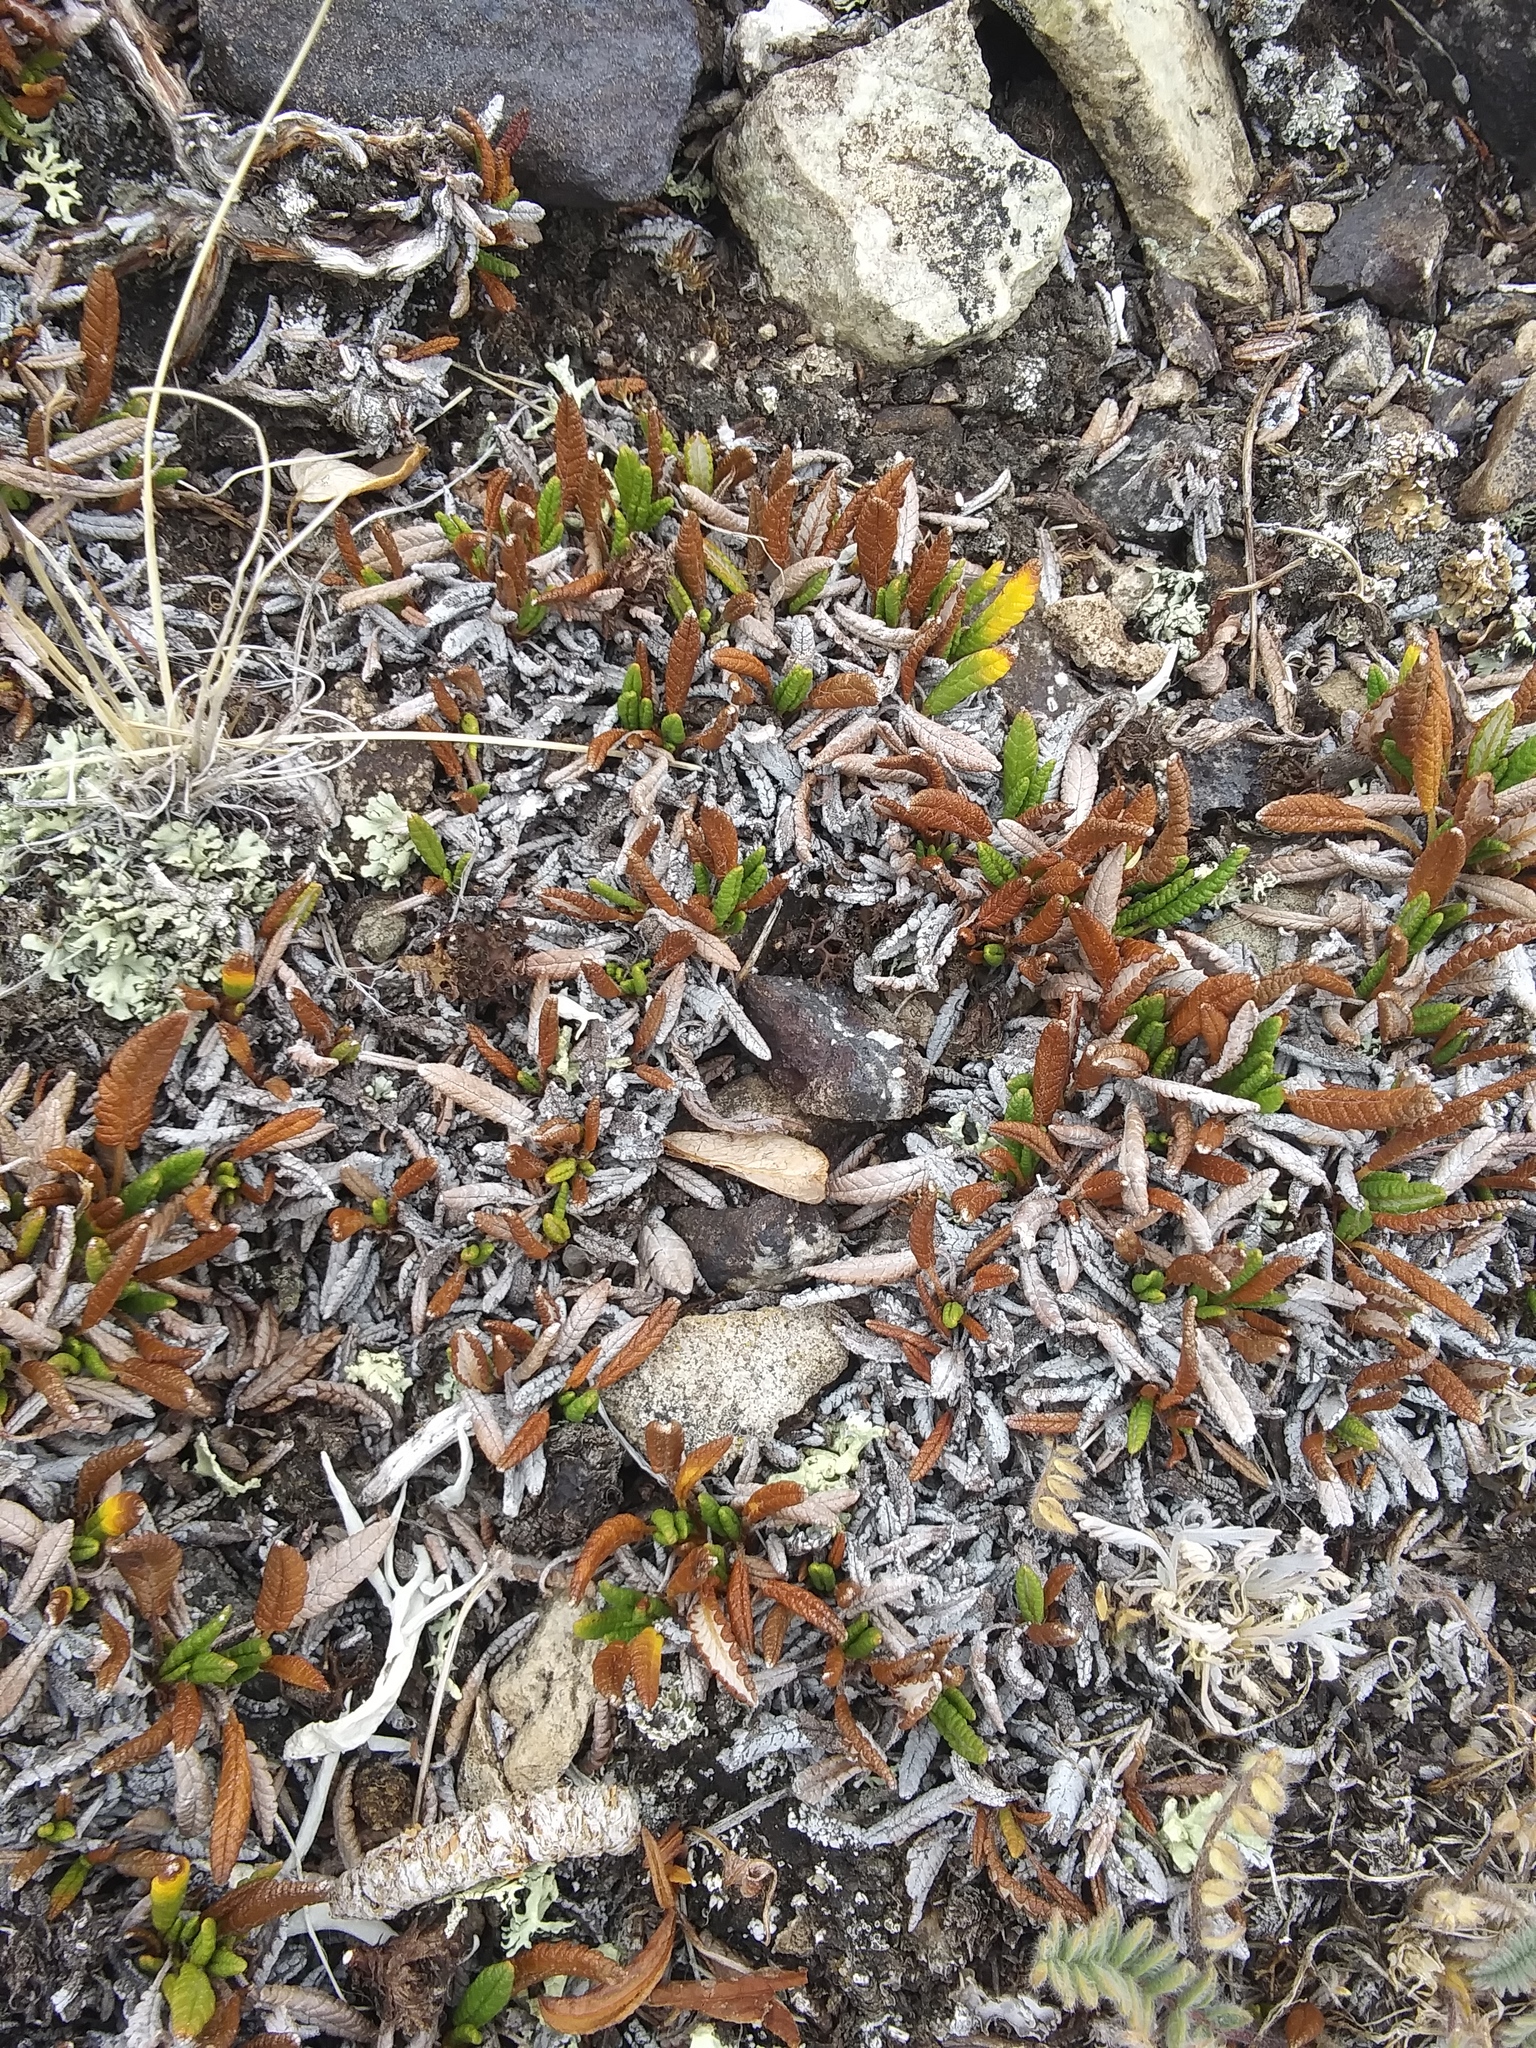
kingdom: Plantae
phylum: Tracheophyta
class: Magnoliopsida
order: Rosales
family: Rosaceae
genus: Dryas
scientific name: Dryas octopetala
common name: Eight-petal mountain-avens
